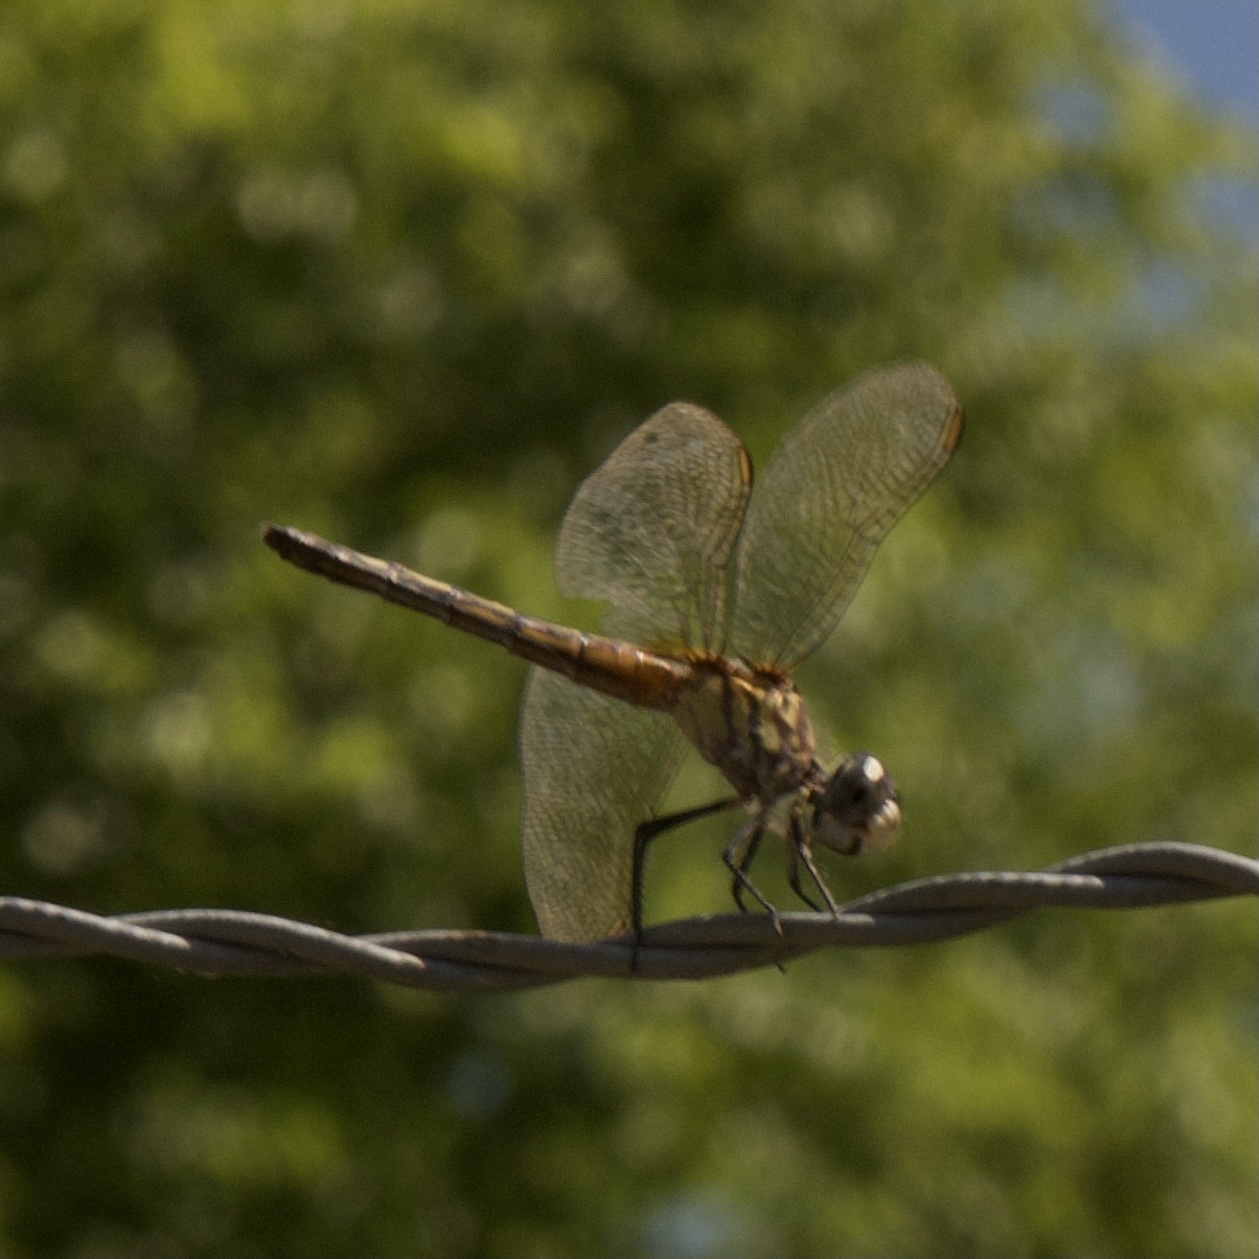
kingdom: Animalia
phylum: Arthropoda
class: Insecta
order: Odonata
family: Libellulidae
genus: Pachydiplax
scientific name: Pachydiplax longipennis
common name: Blue dasher
